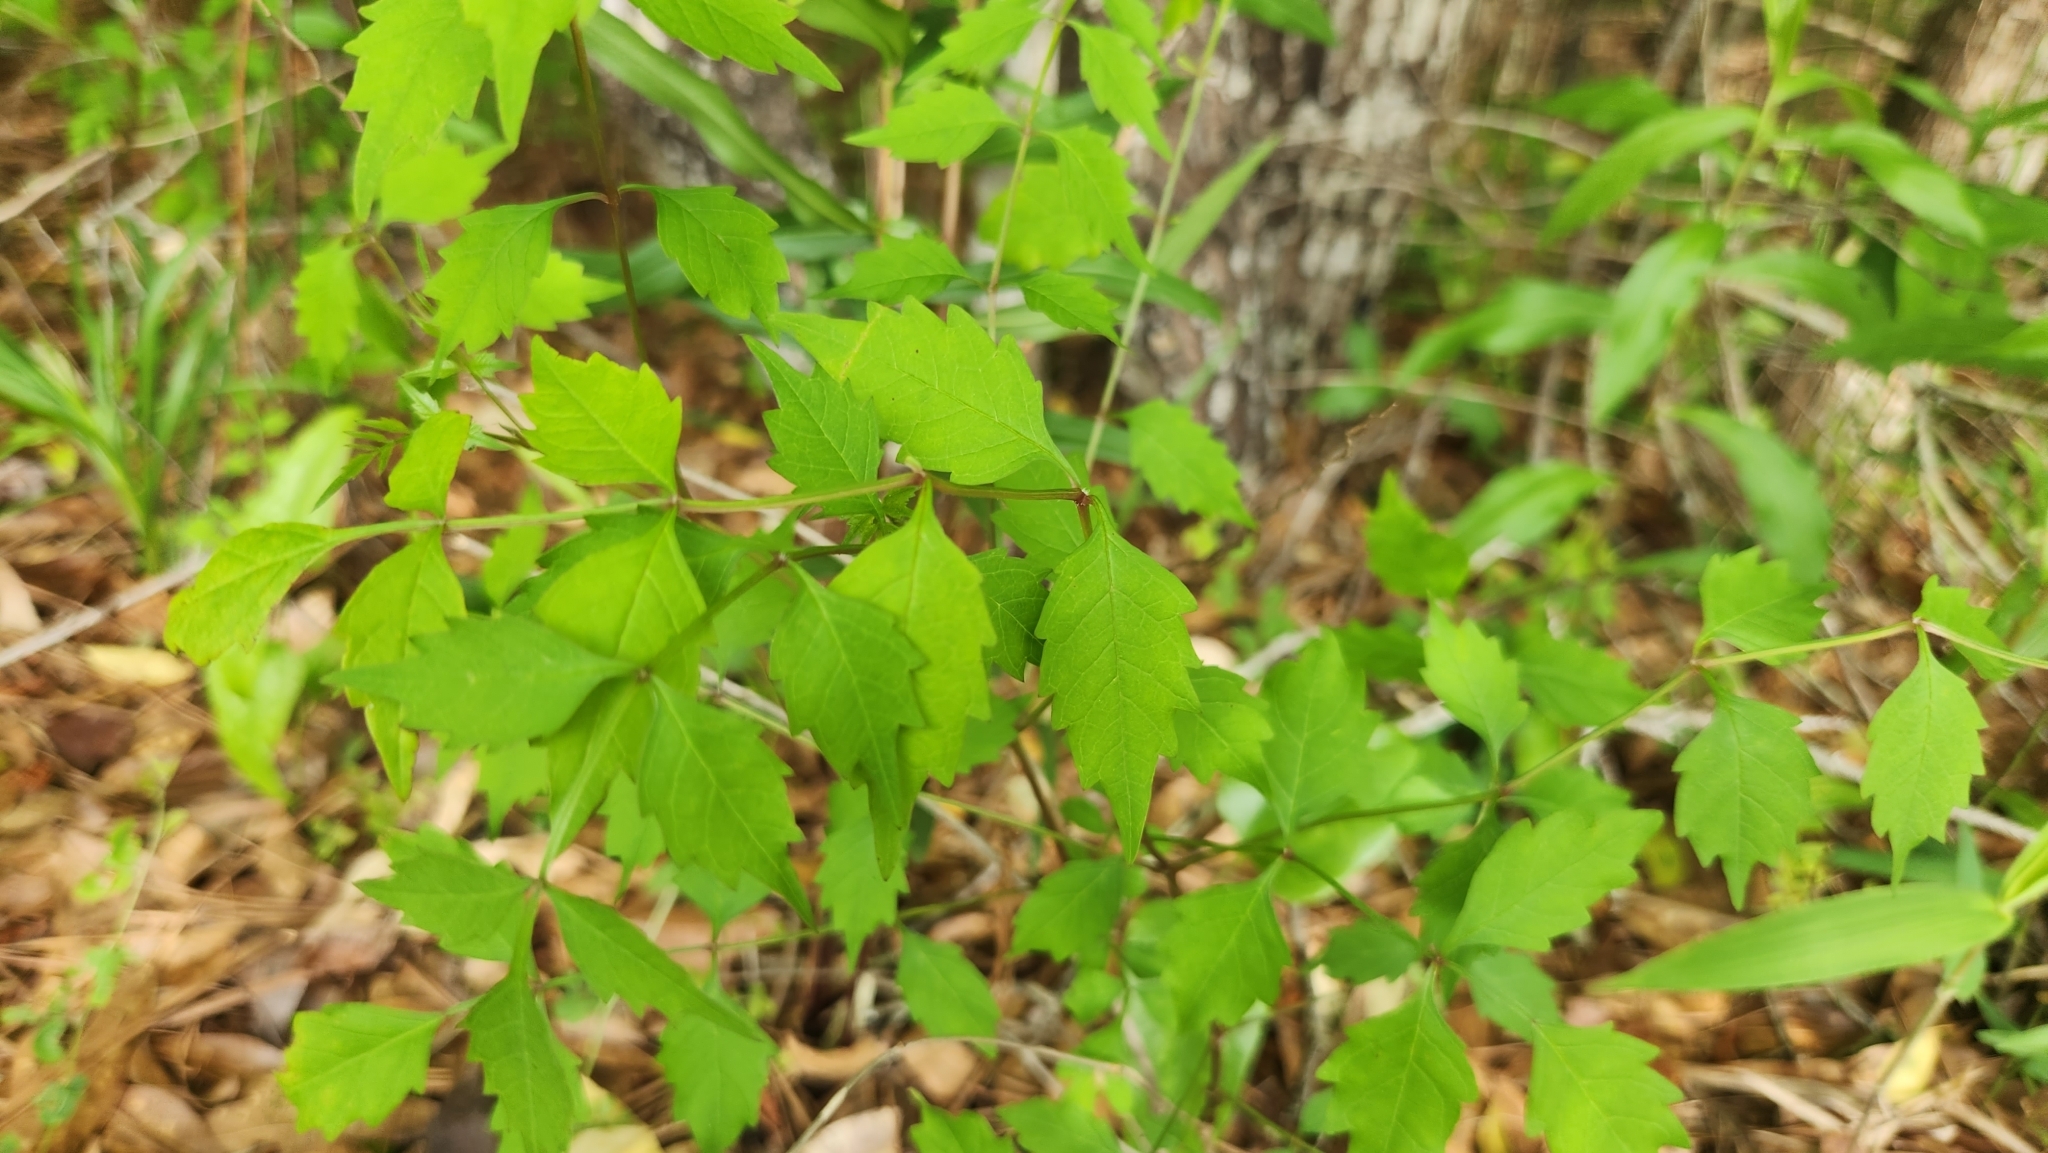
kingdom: Plantae
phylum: Tracheophyta
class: Magnoliopsida
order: Lamiales
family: Bignoniaceae
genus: Campsis
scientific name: Campsis radicans
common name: Trumpet-creeper
